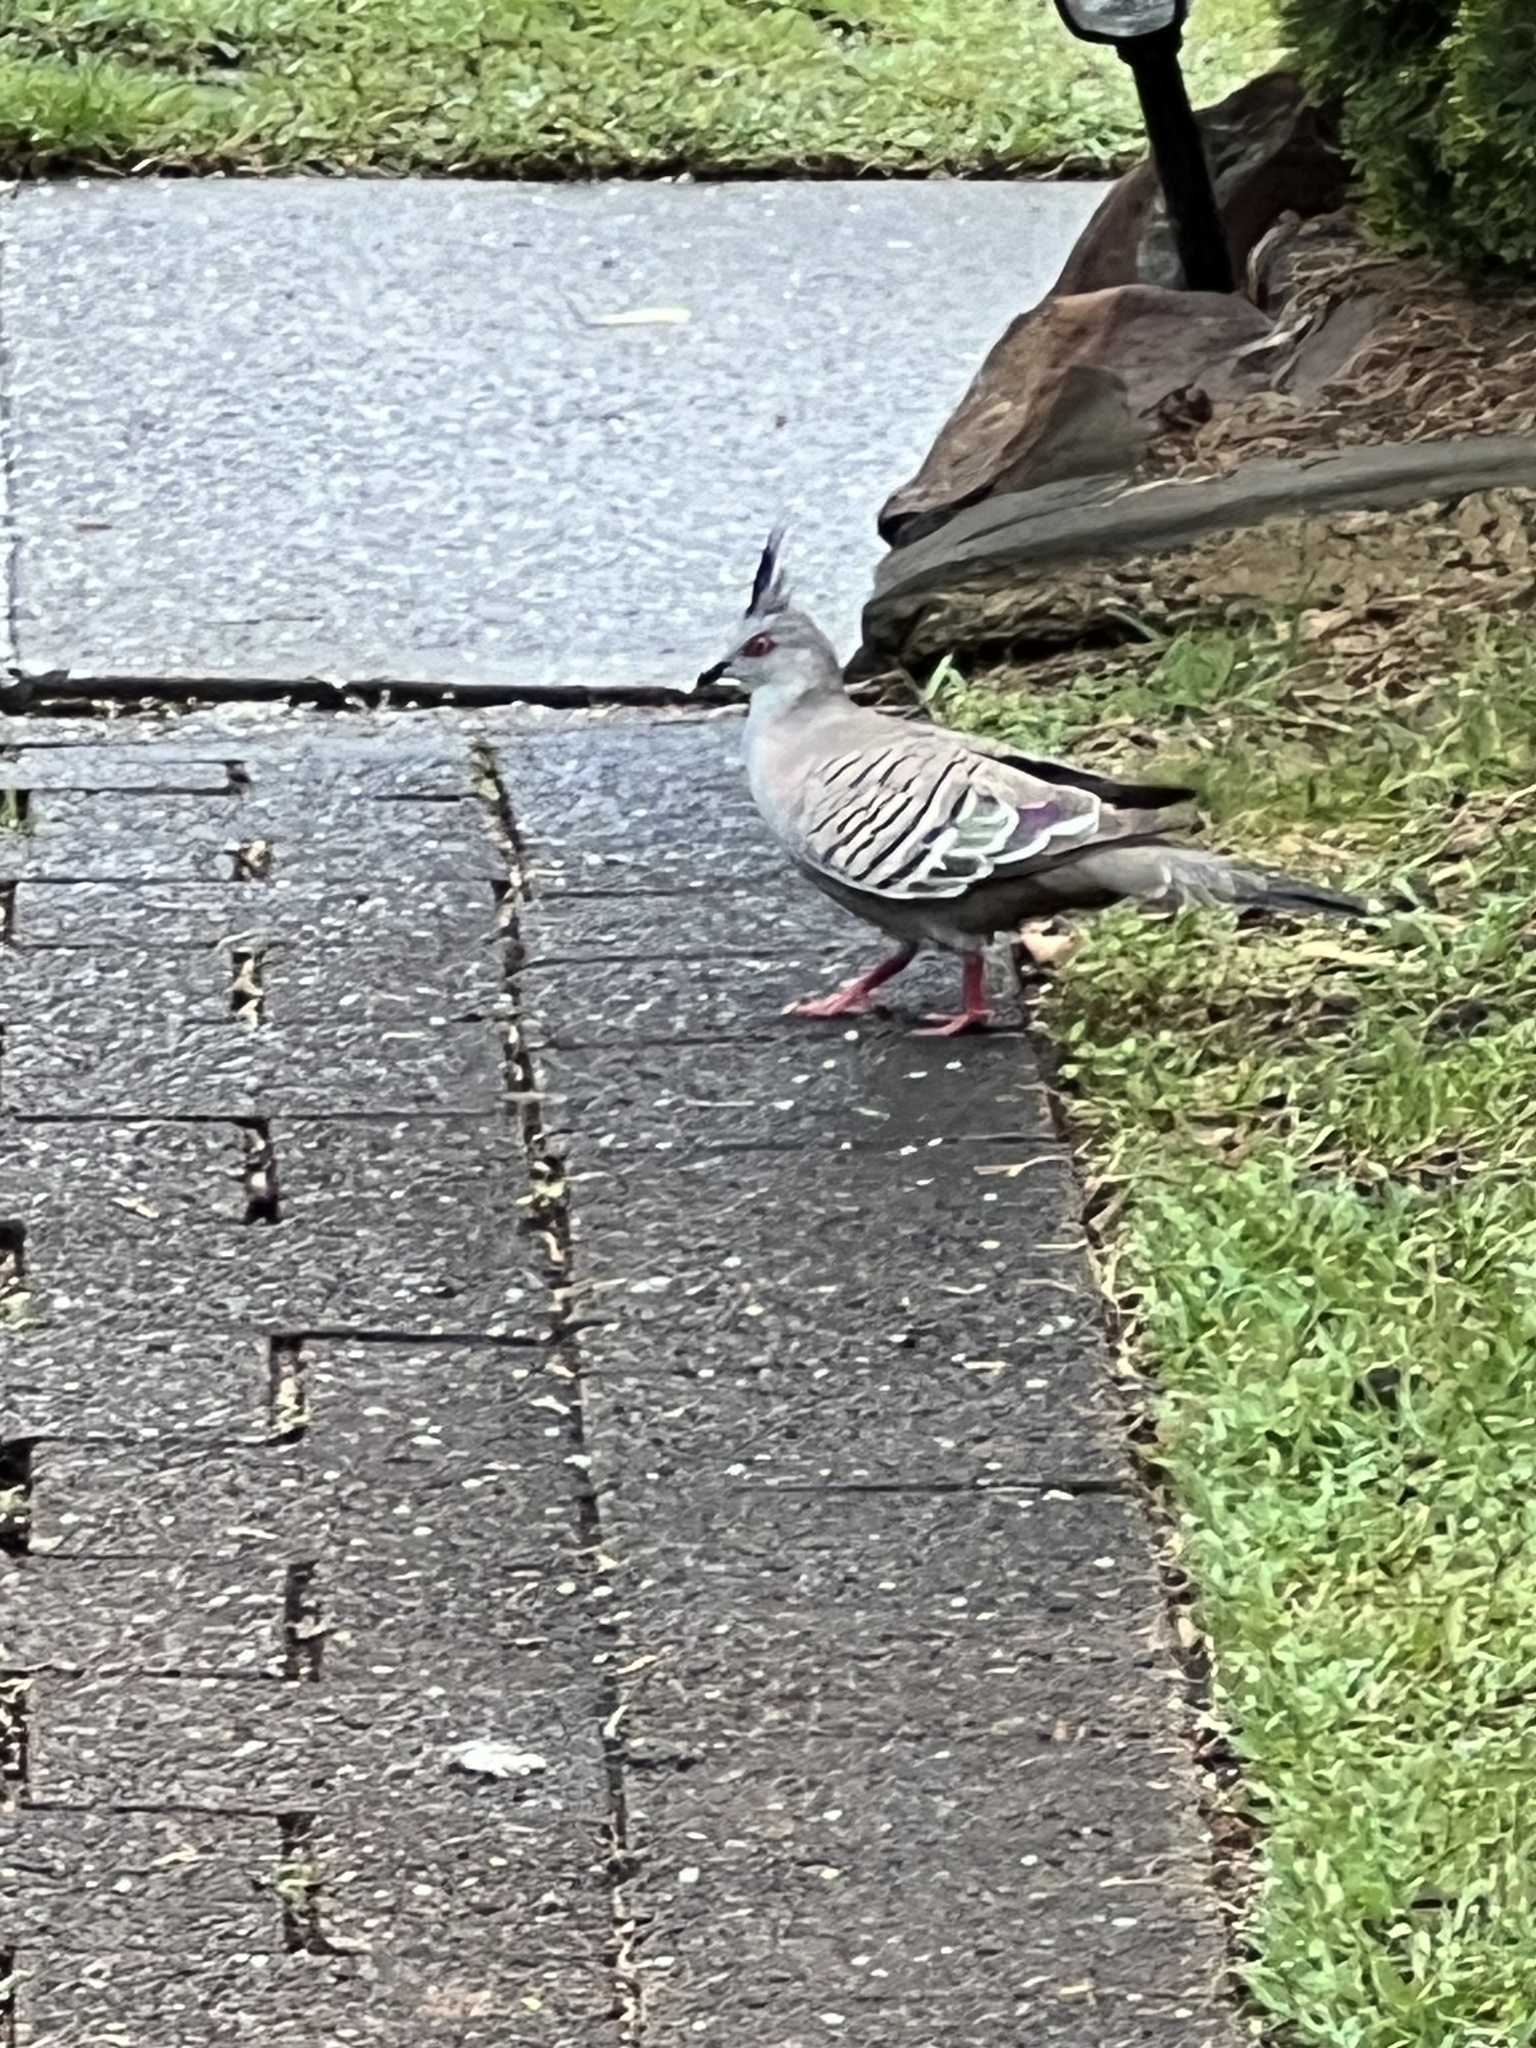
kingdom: Animalia
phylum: Chordata
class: Aves
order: Columbiformes
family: Columbidae
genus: Ocyphaps
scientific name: Ocyphaps lophotes
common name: Crested pigeon
